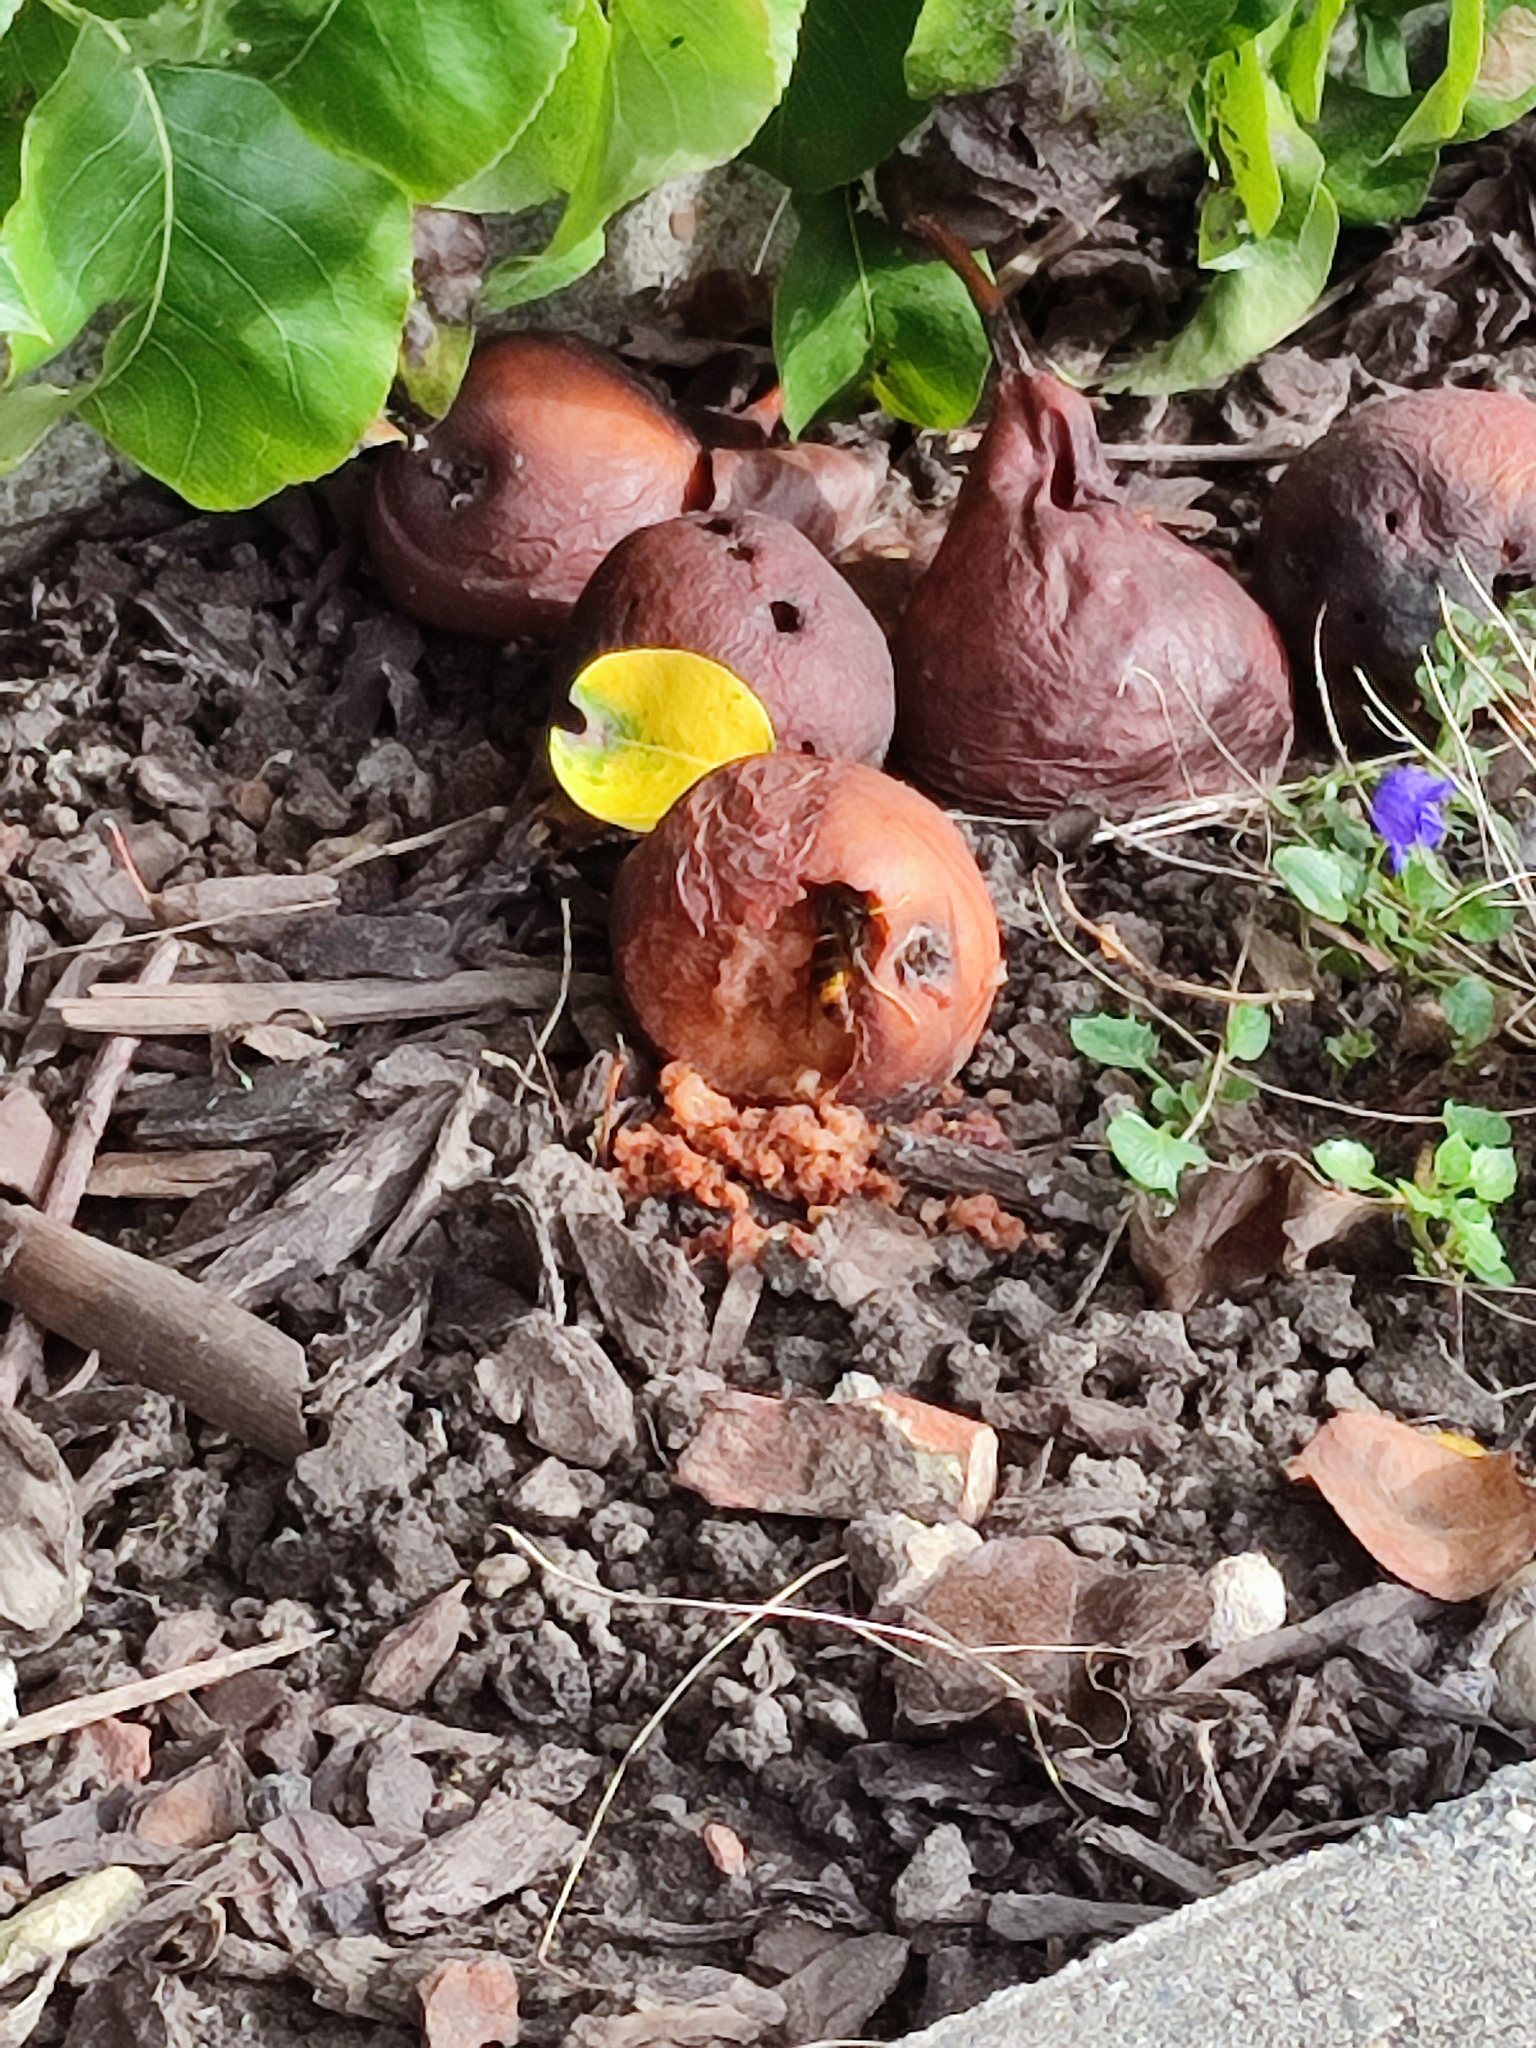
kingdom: Animalia
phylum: Arthropoda
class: Insecta
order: Hymenoptera
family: Vespidae
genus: Vespa
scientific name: Vespa velutina
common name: Asian hornet
